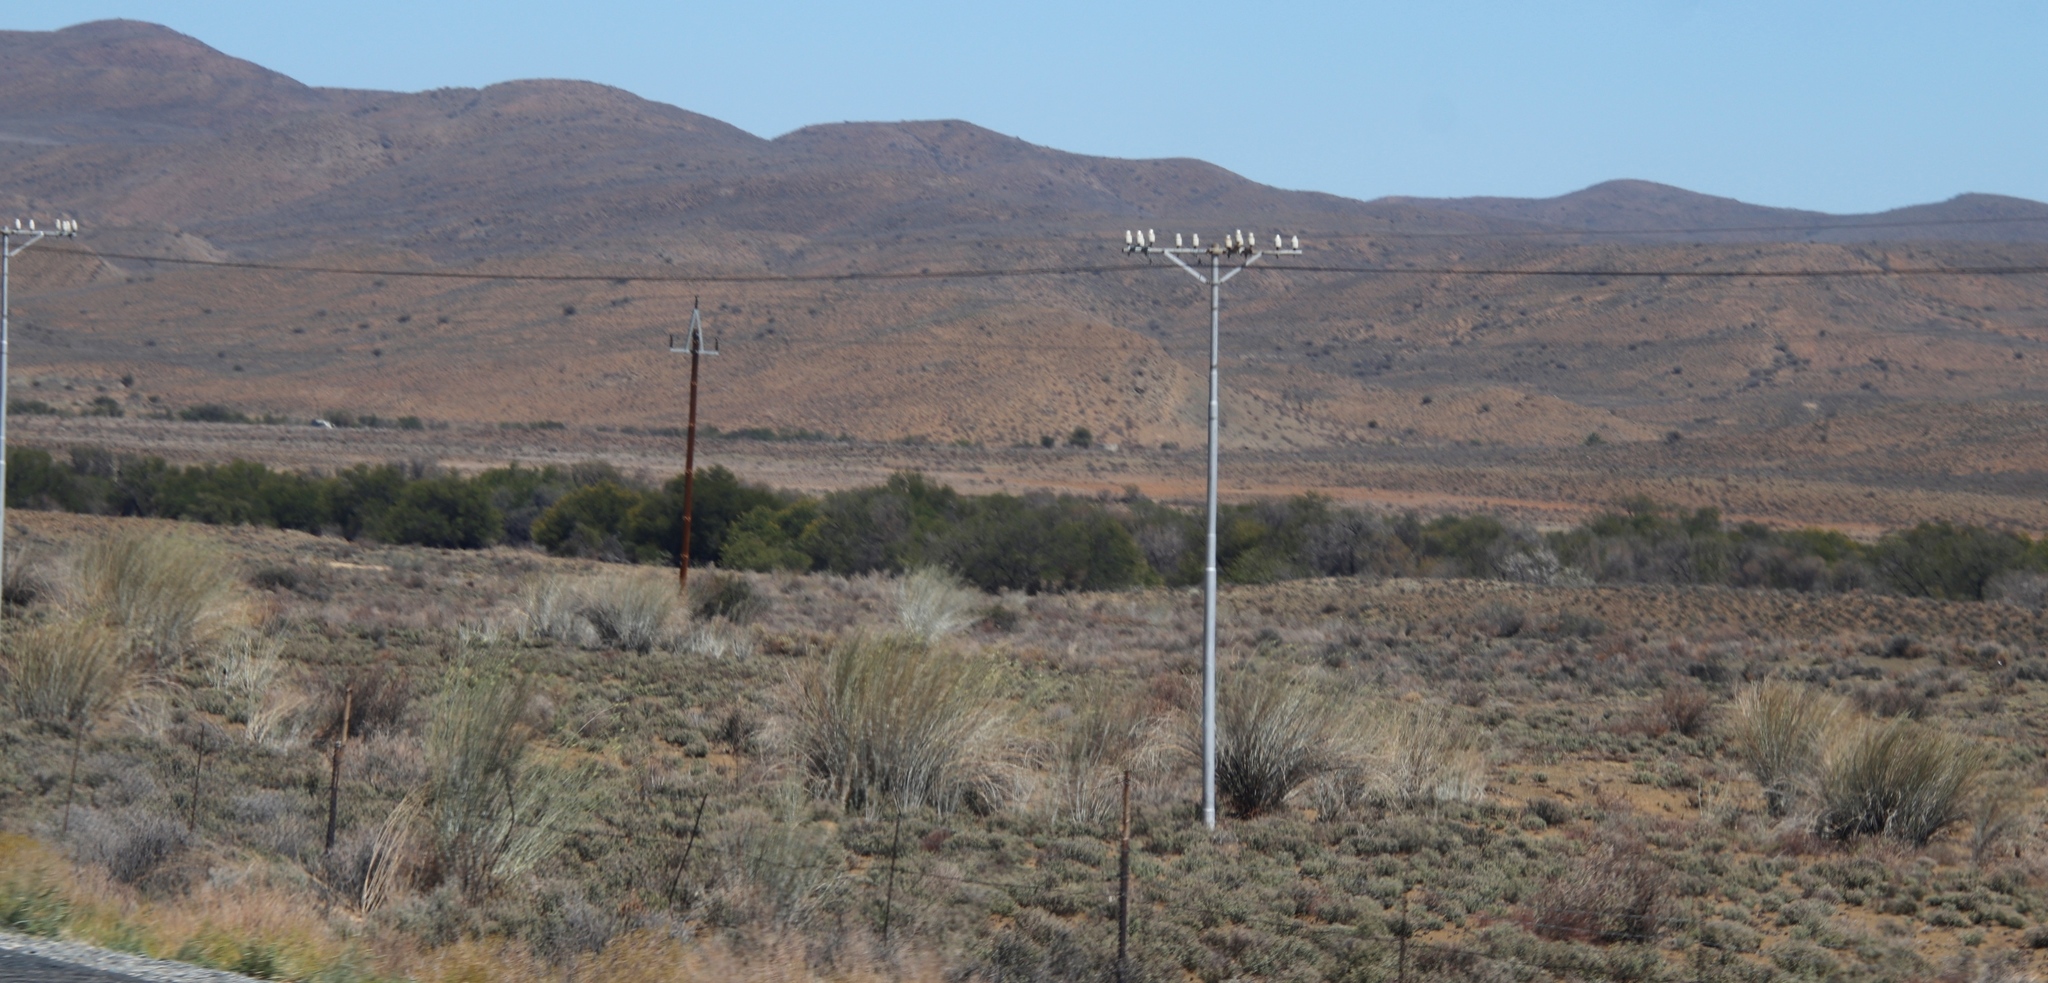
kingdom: Plantae
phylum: Tracheophyta
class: Magnoliopsida
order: Gentianales
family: Apocynaceae
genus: Gomphocarpus
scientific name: Gomphocarpus filiformis
